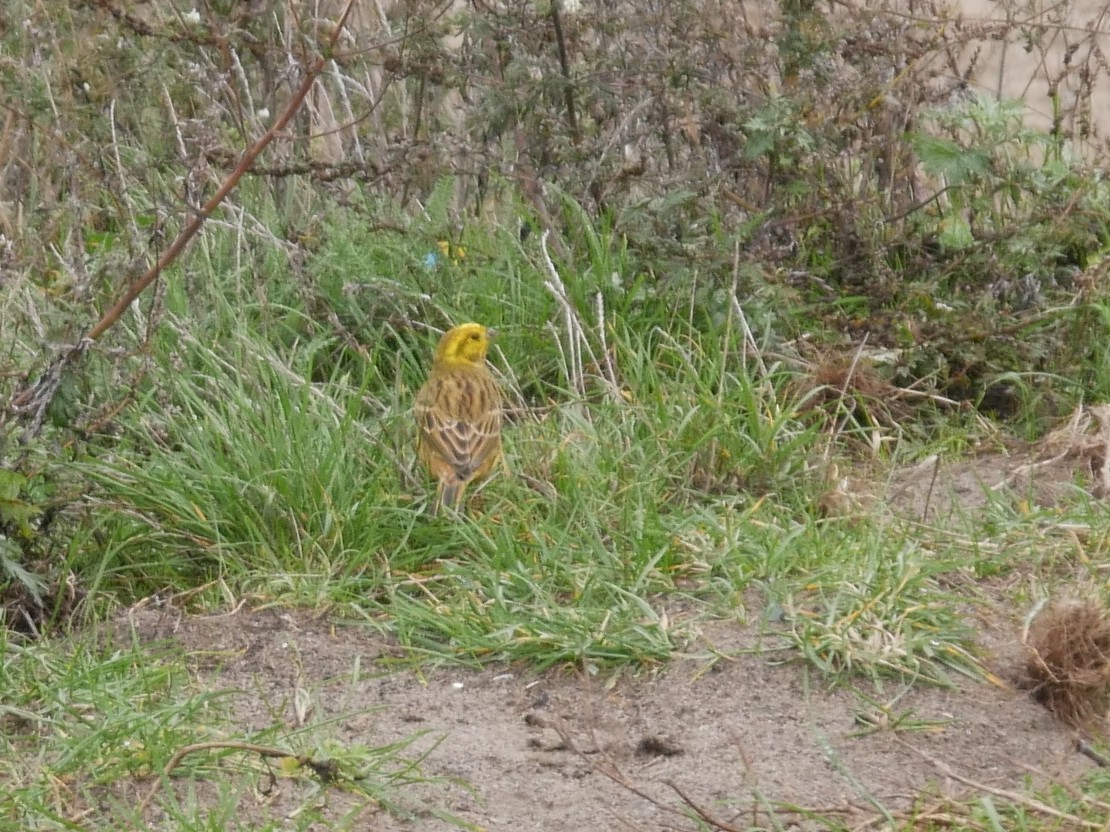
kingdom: Animalia
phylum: Chordata
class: Aves
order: Passeriformes
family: Emberizidae
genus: Emberiza
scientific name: Emberiza citrinella
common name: Yellowhammer
